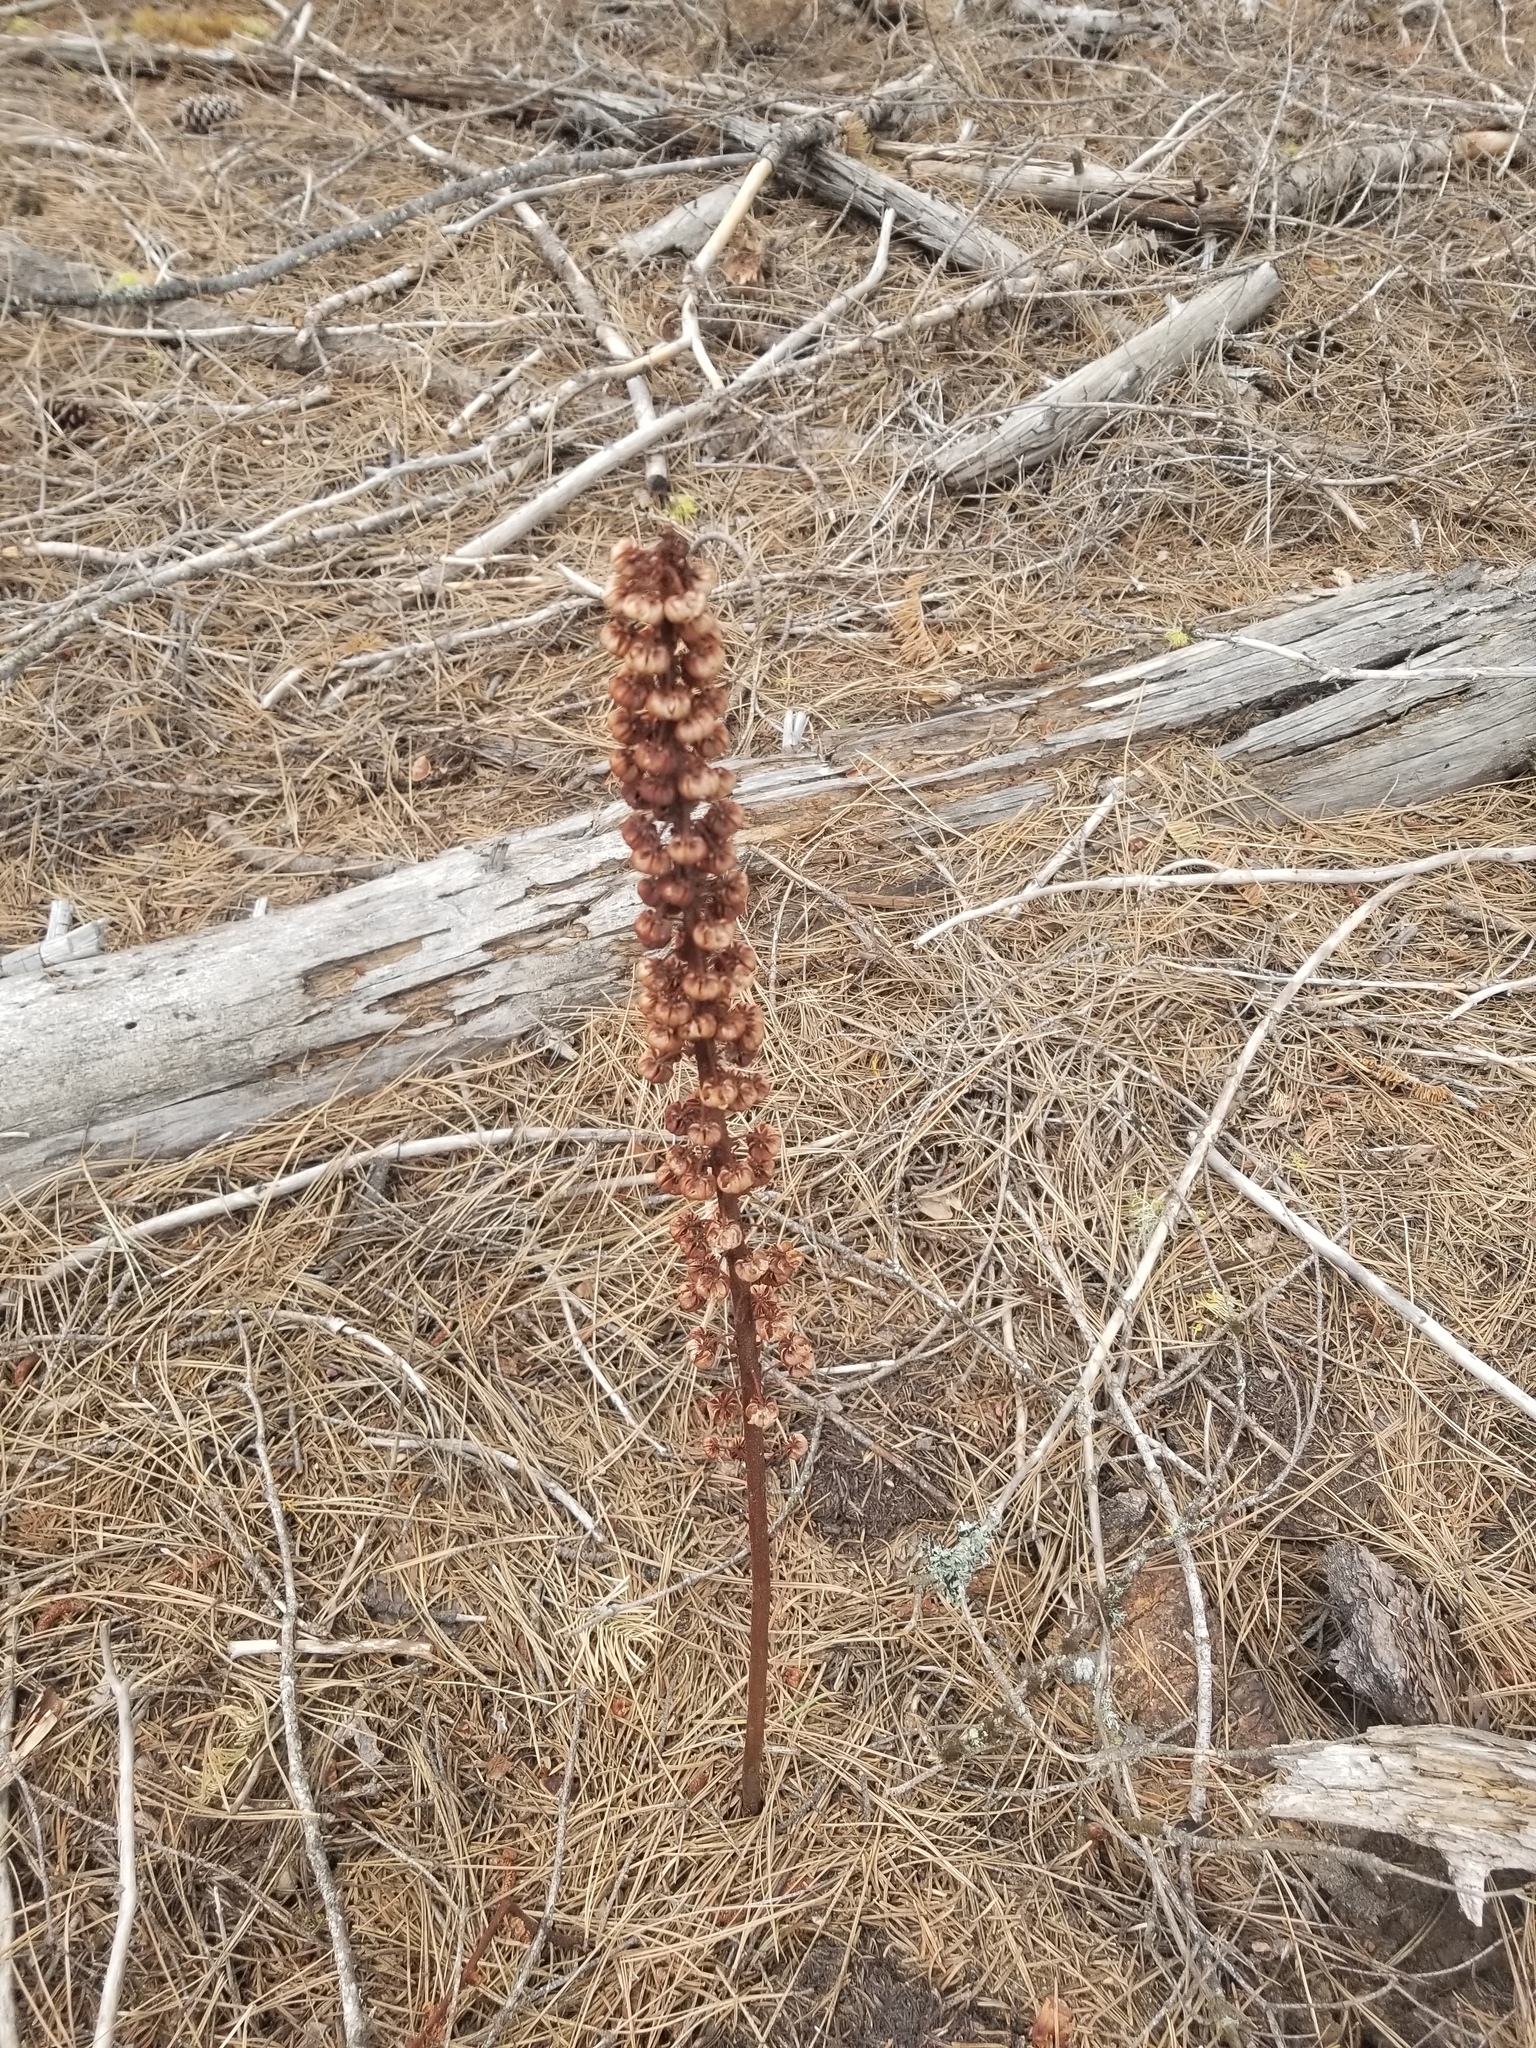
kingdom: Plantae
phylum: Tracheophyta
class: Magnoliopsida
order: Ericales
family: Ericaceae
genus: Pterospora
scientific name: Pterospora andromedea
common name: Giant bird's-nest
